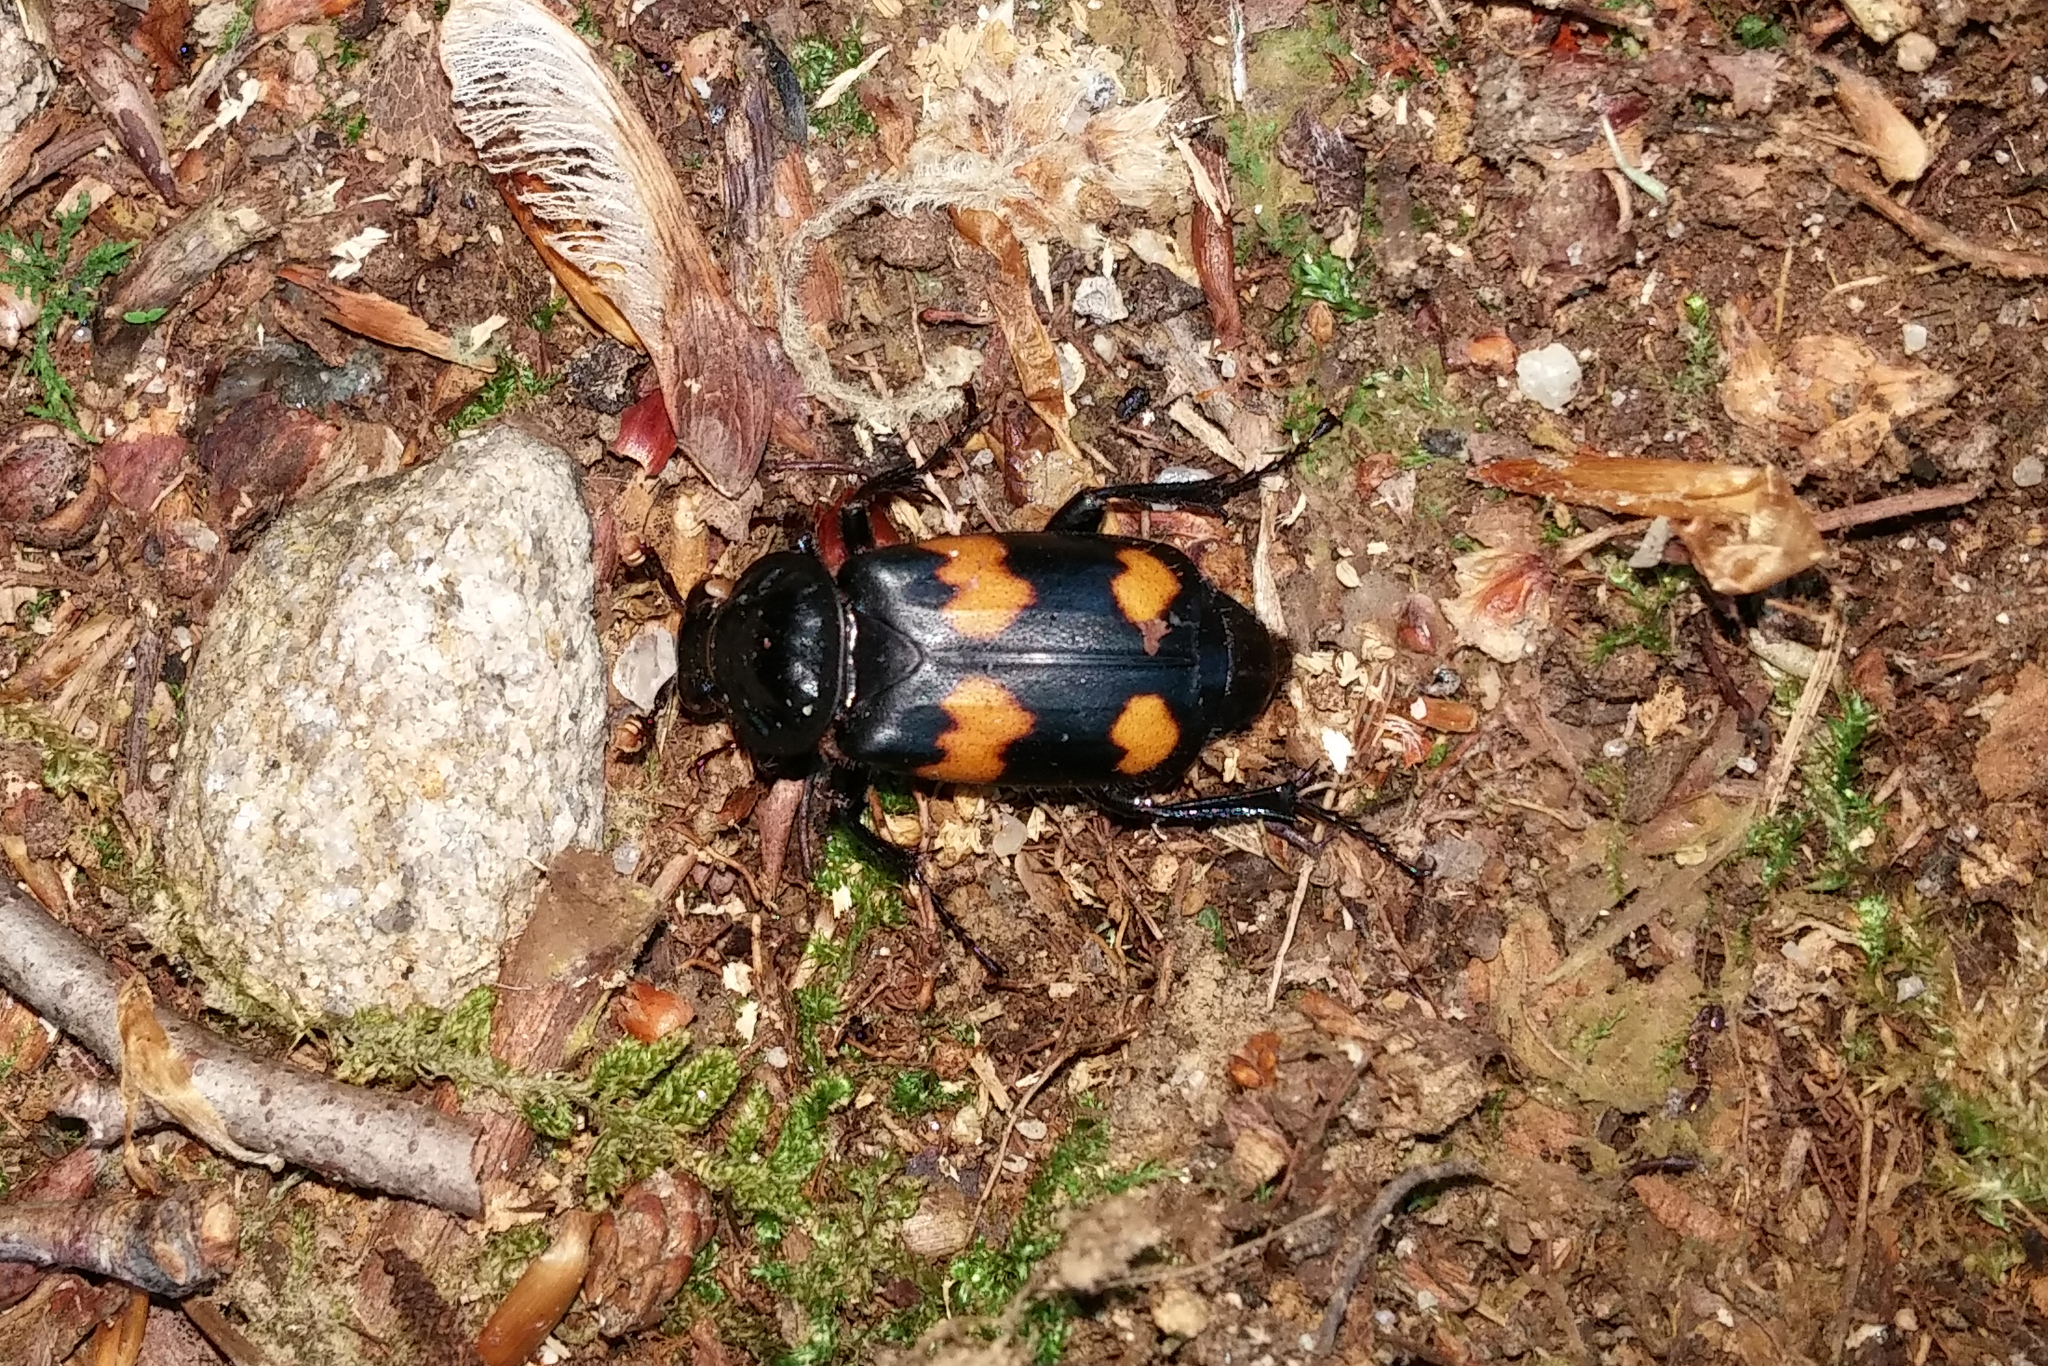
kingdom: Animalia
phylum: Arthropoda
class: Insecta
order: Coleoptera
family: Staphylinidae
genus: Nicrophorus
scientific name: Nicrophorus orbicollis
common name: Roundneck sexton beetle
